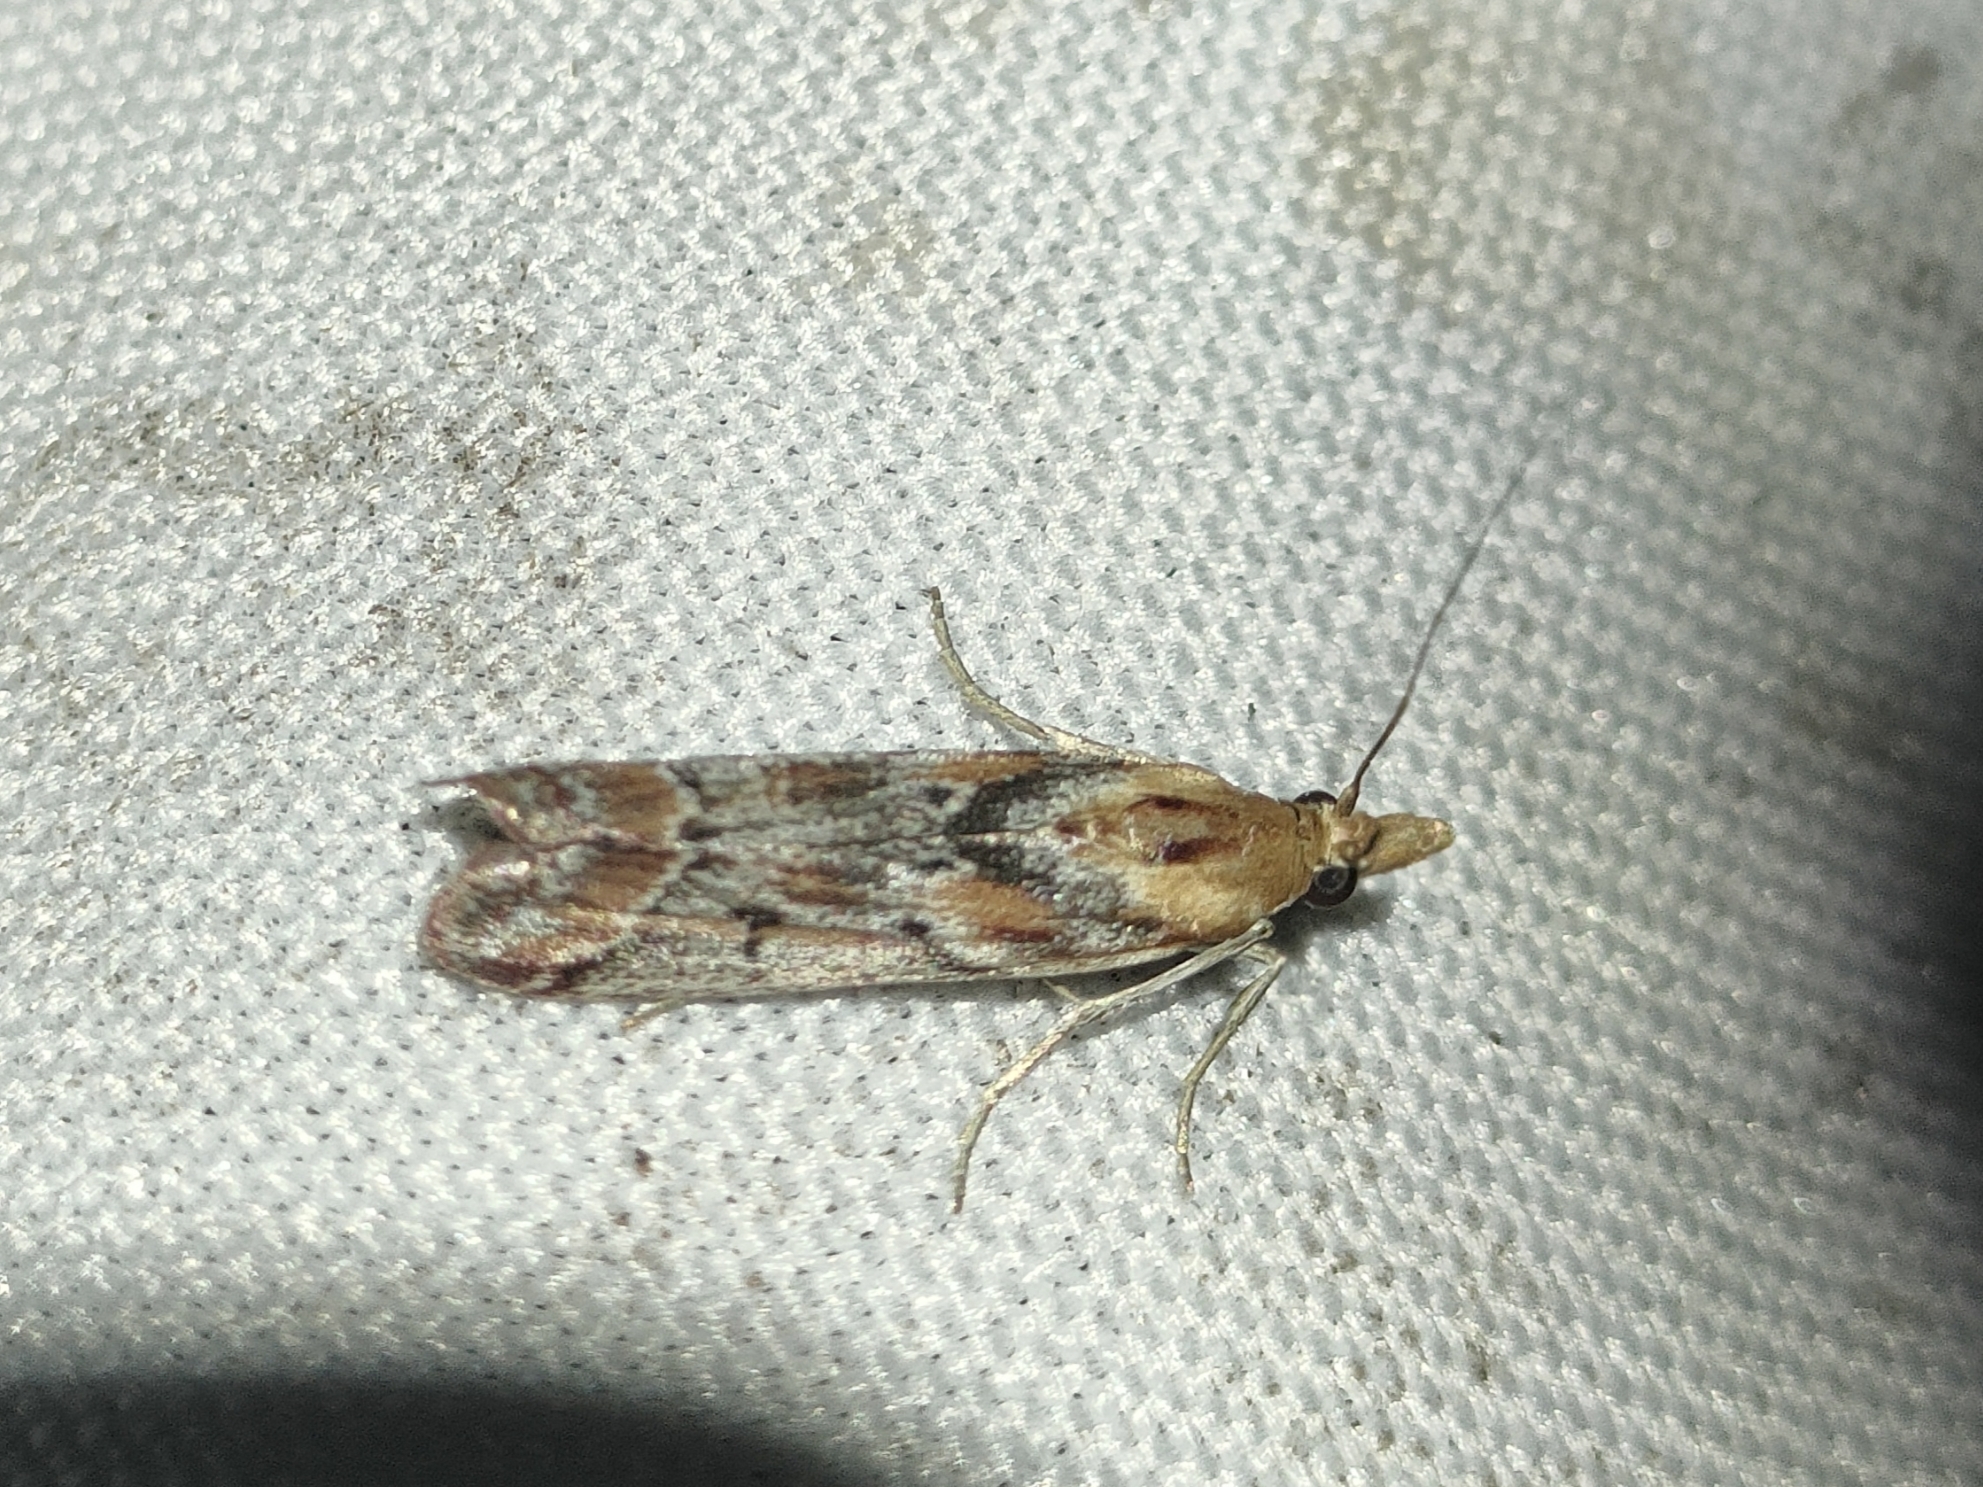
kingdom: Animalia
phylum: Arthropoda
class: Insecta
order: Lepidoptera
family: Pyralidae
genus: Ancylosis
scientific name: Ancylosis cinnamomella
